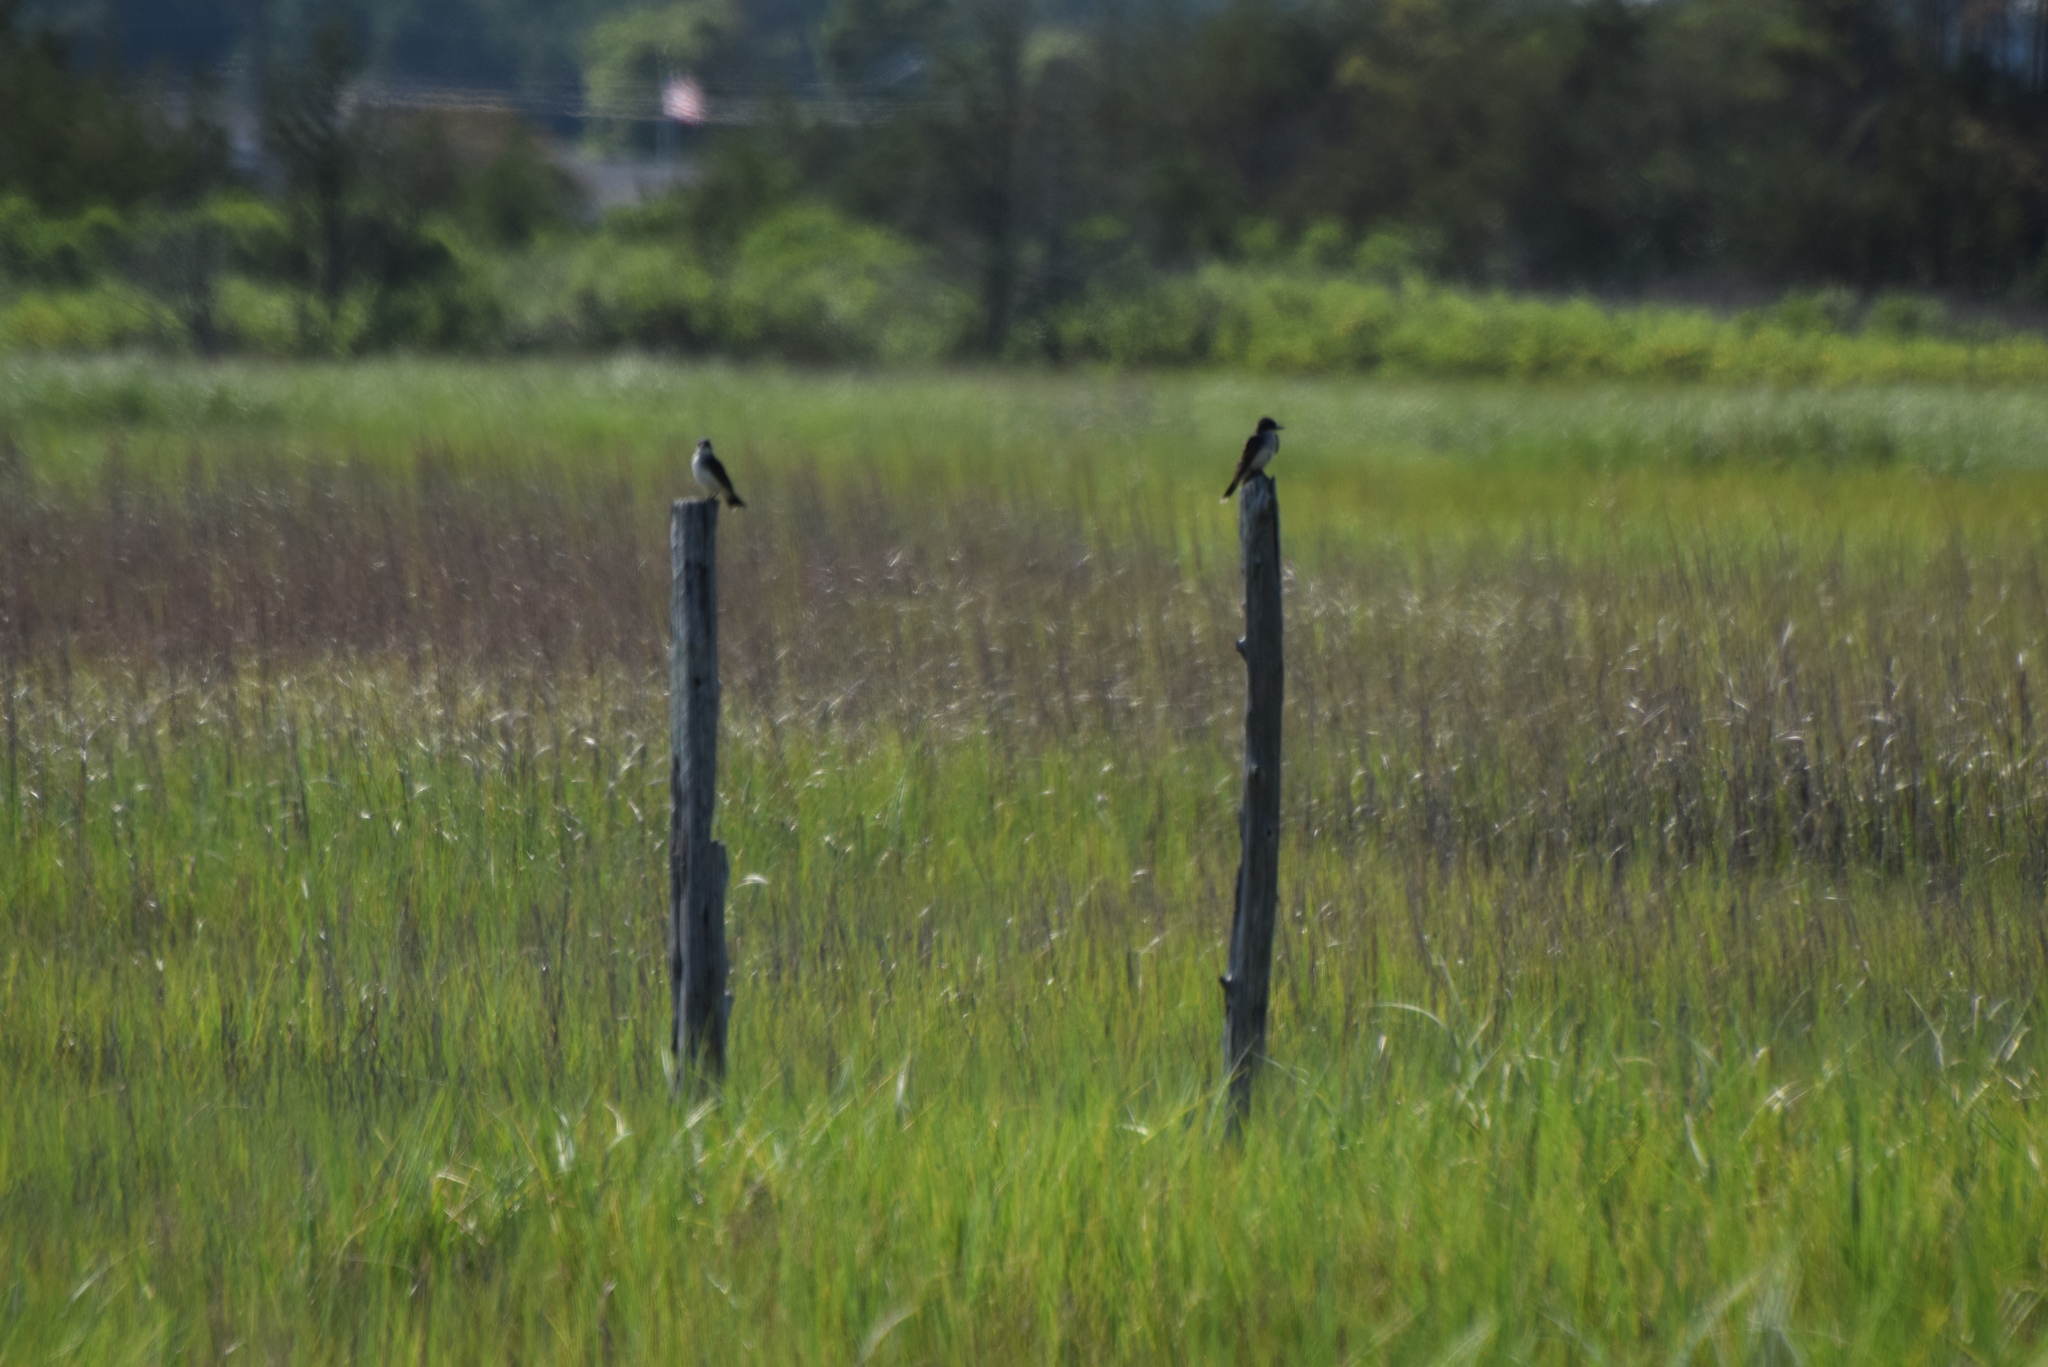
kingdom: Animalia
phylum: Chordata
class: Aves
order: Passeriformes
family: Tyrannidae
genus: Tyrannus
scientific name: Tyrannus tyrannus
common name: Eastern kingbird
